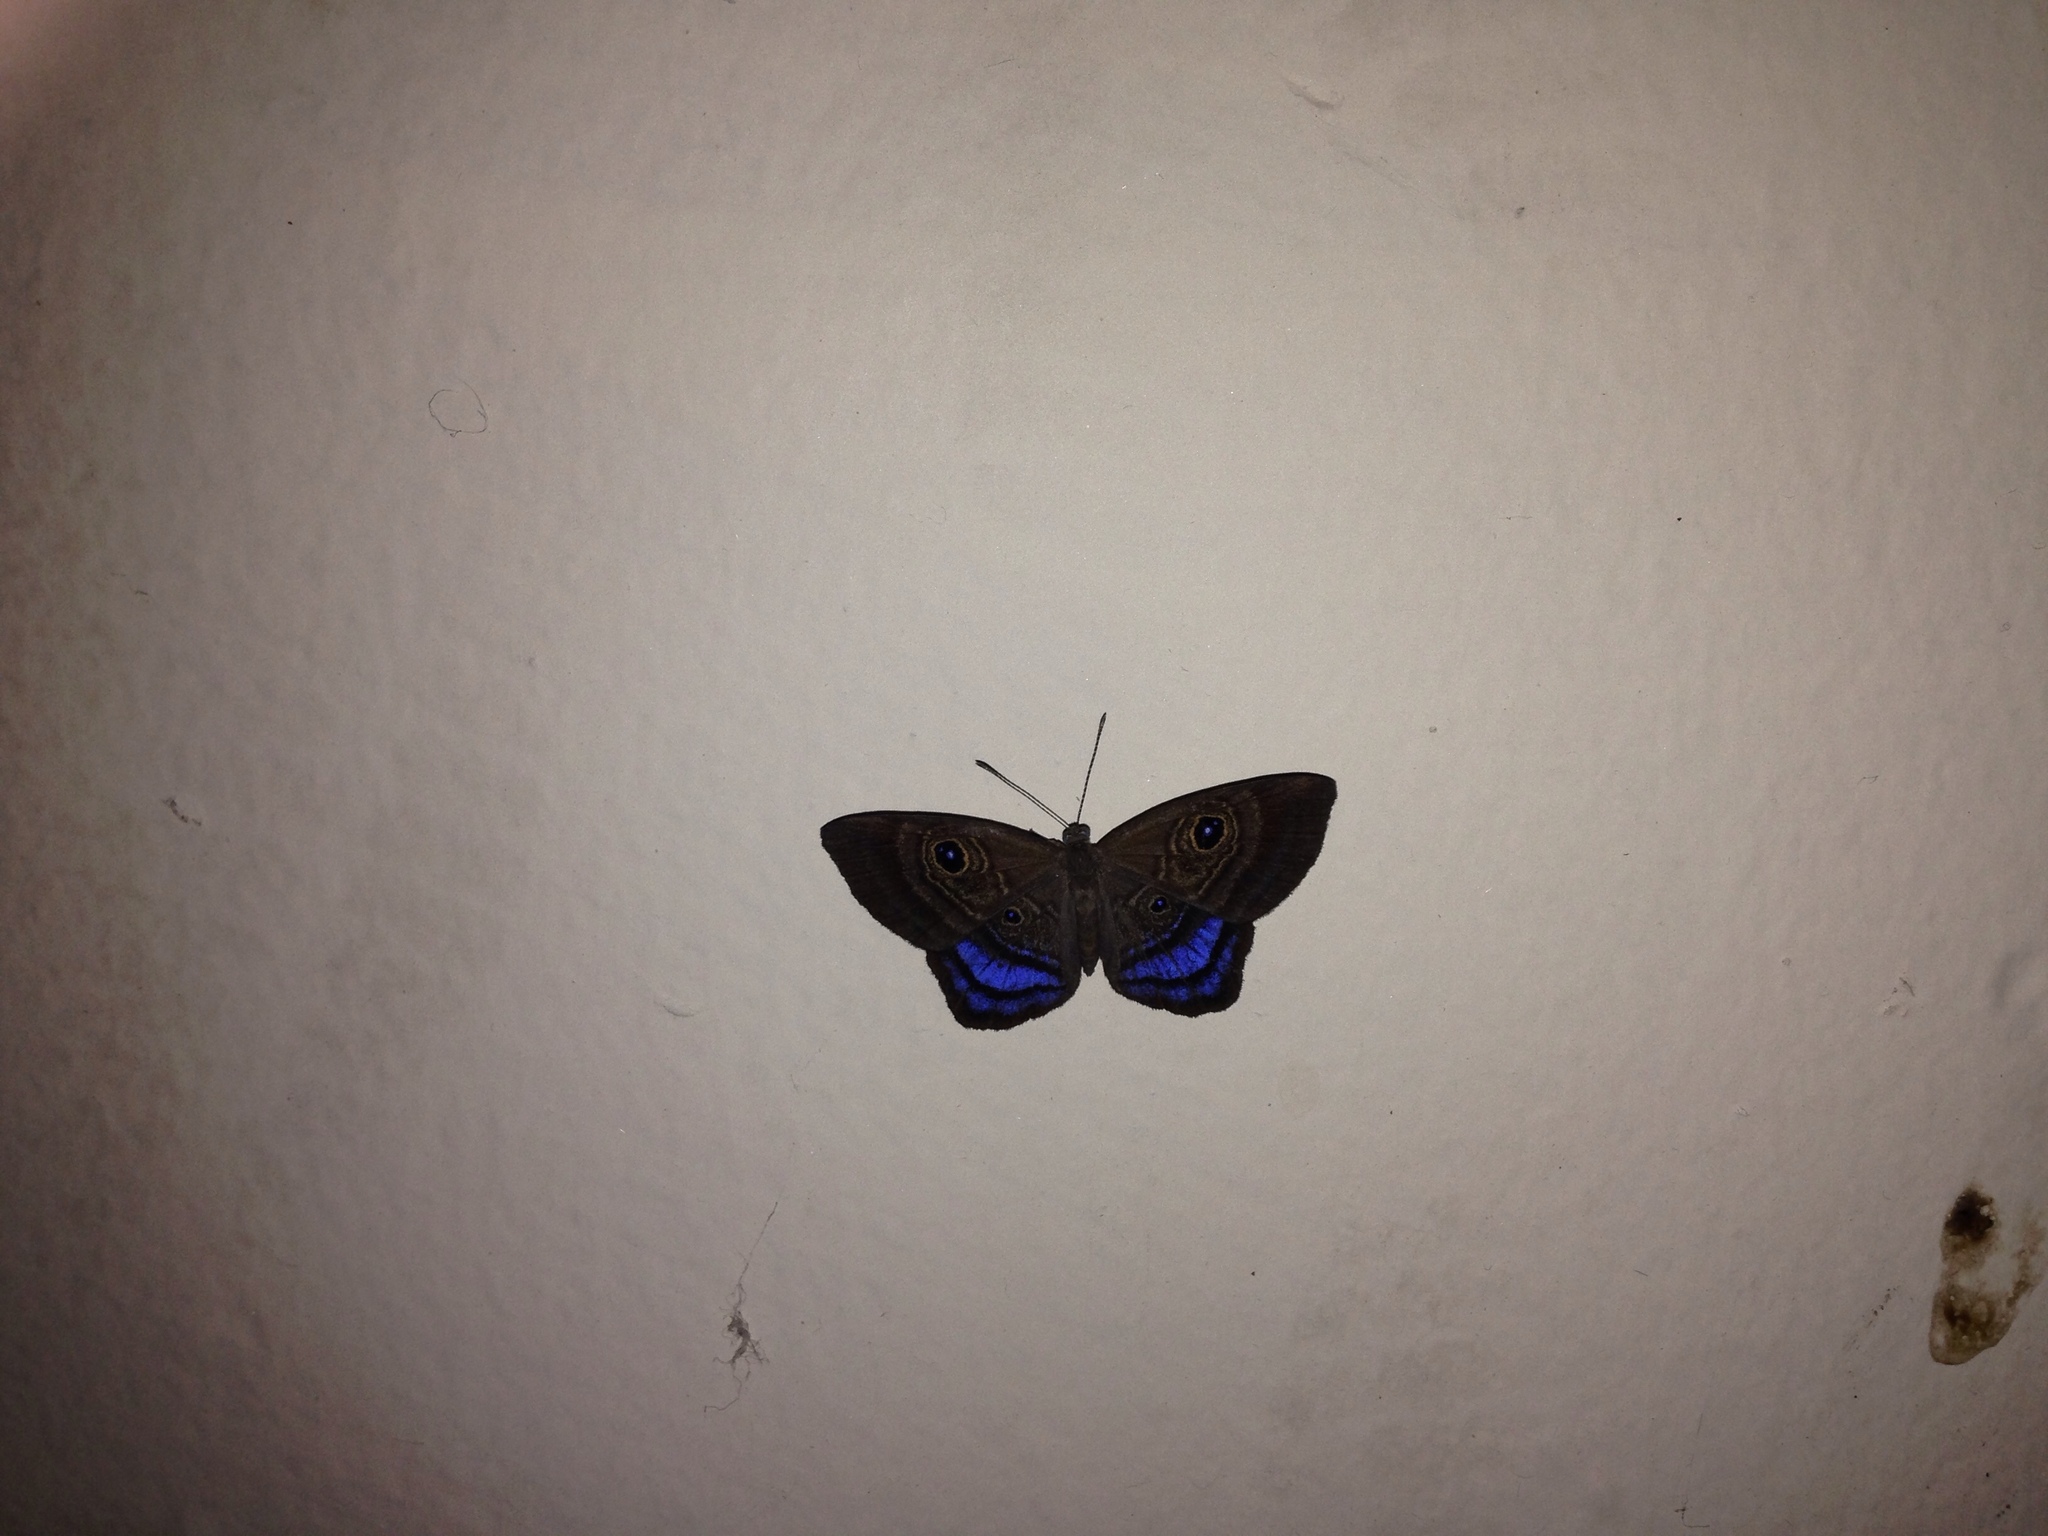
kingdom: Animalia
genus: Mesosemia
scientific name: Mesosemia
